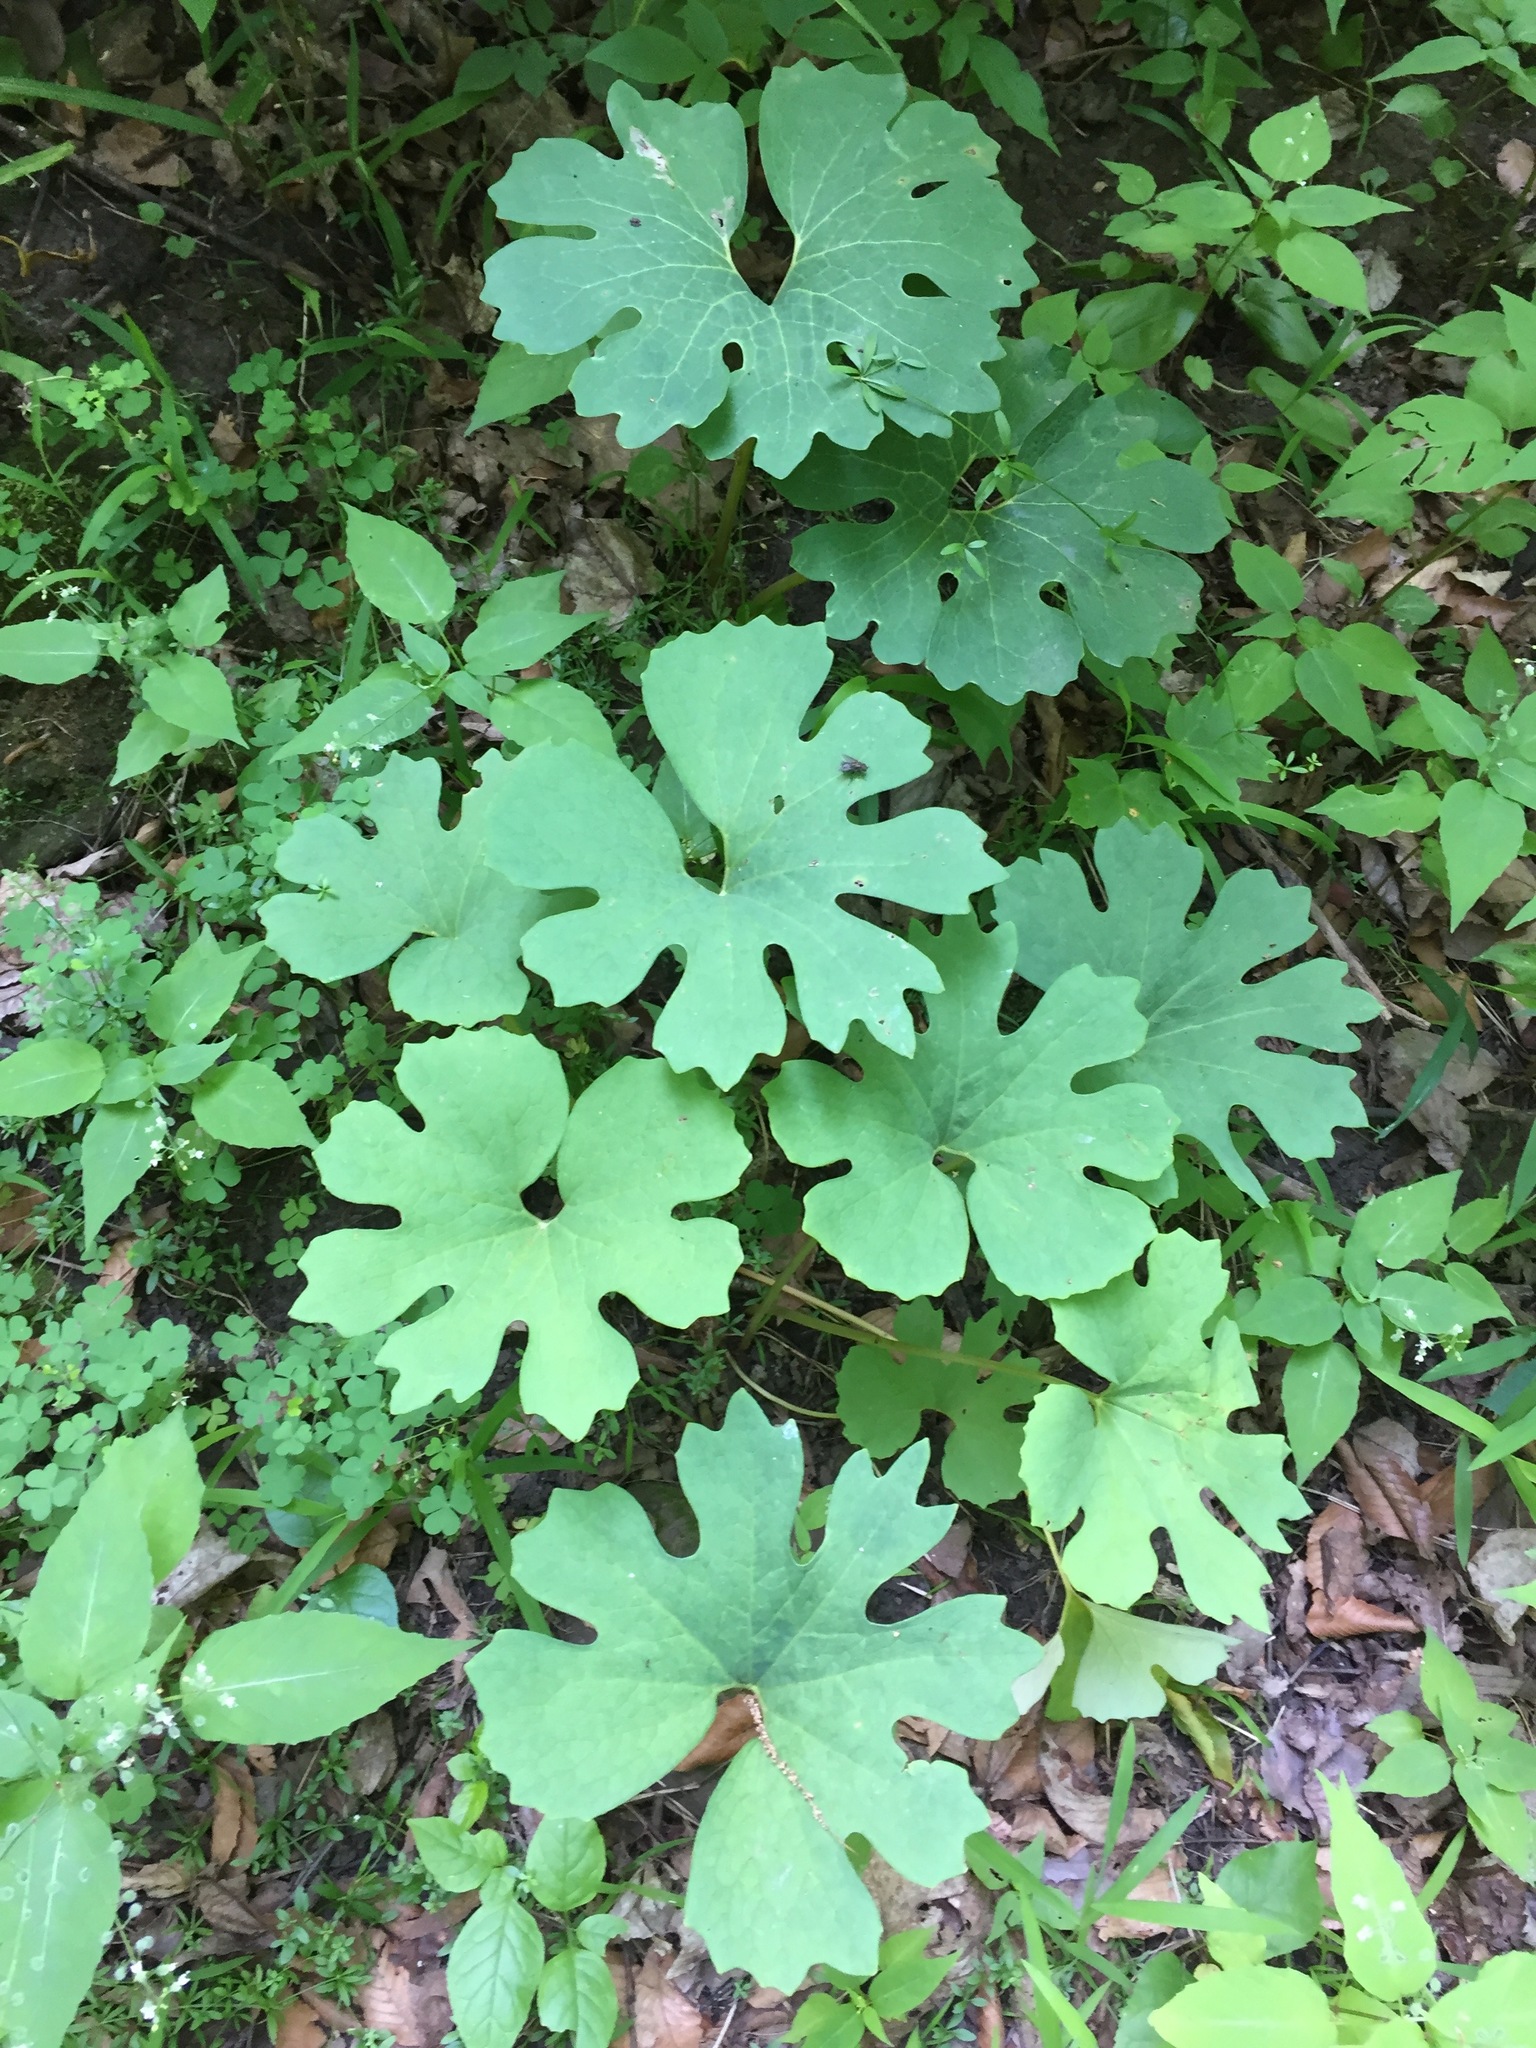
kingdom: Plantae
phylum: Tracheophyta
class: Magnoliopsida
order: Ranunculales
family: Papaveraceae
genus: Sanguinaria
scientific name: Sanguinaria canadensis
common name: Bloodroot
